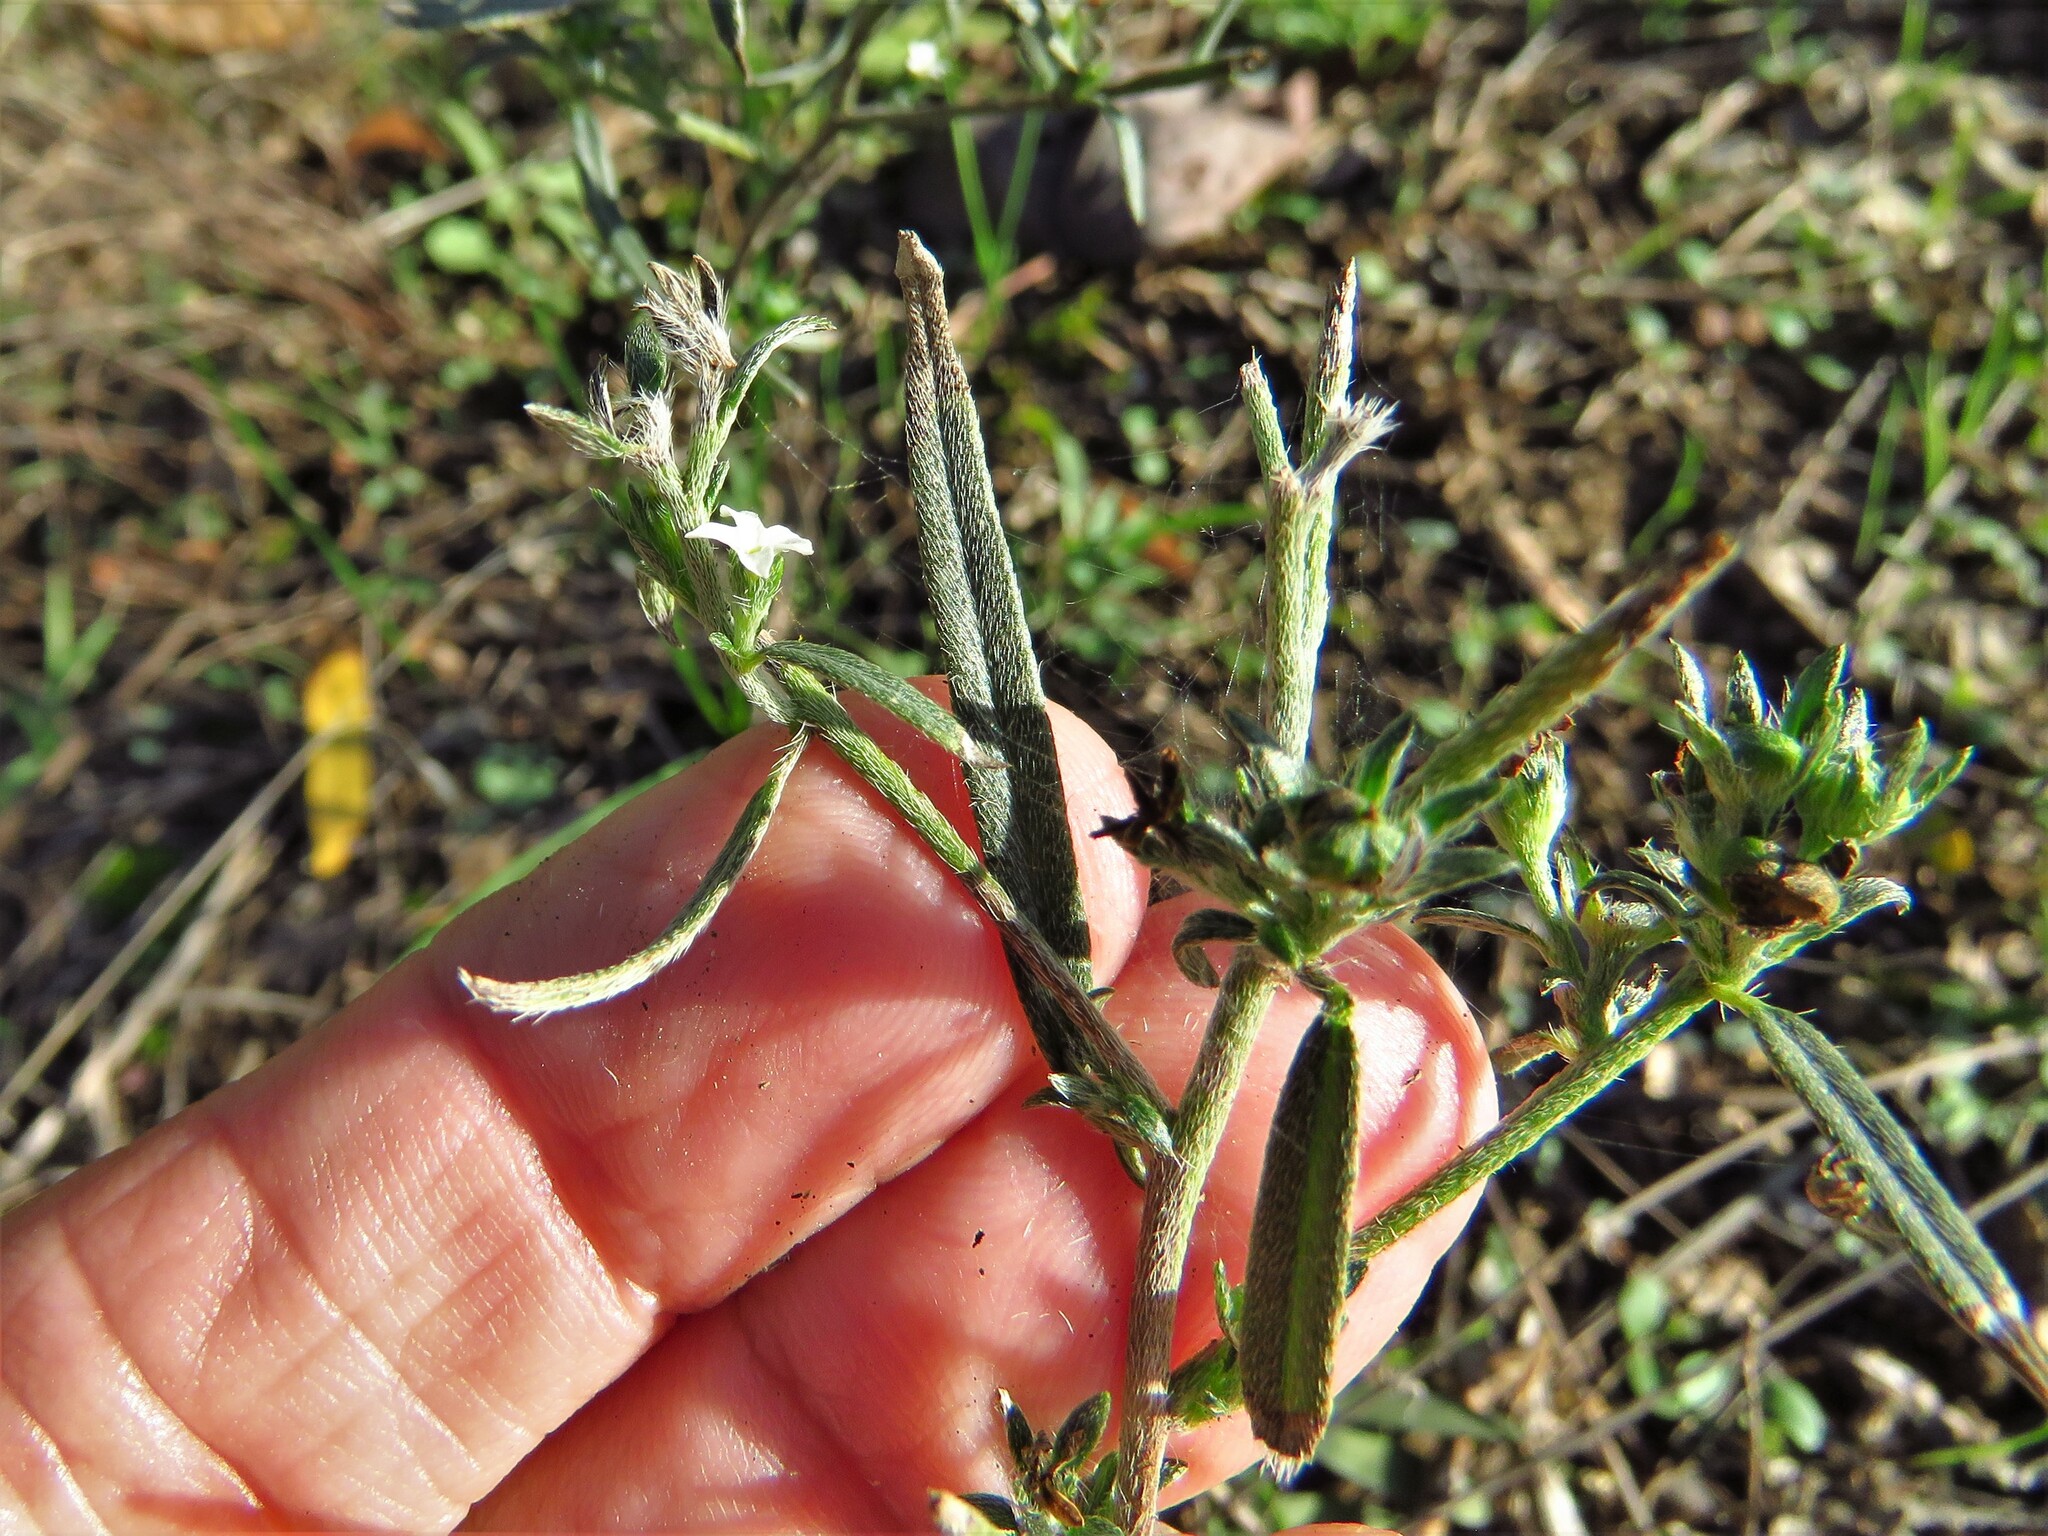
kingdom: Plantae
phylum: Tracheophyta
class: Magnoliopsida
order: Boraginales
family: Boraginaceae
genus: Buglossoides
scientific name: Buglossoides arvensis
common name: Corn gromwell
